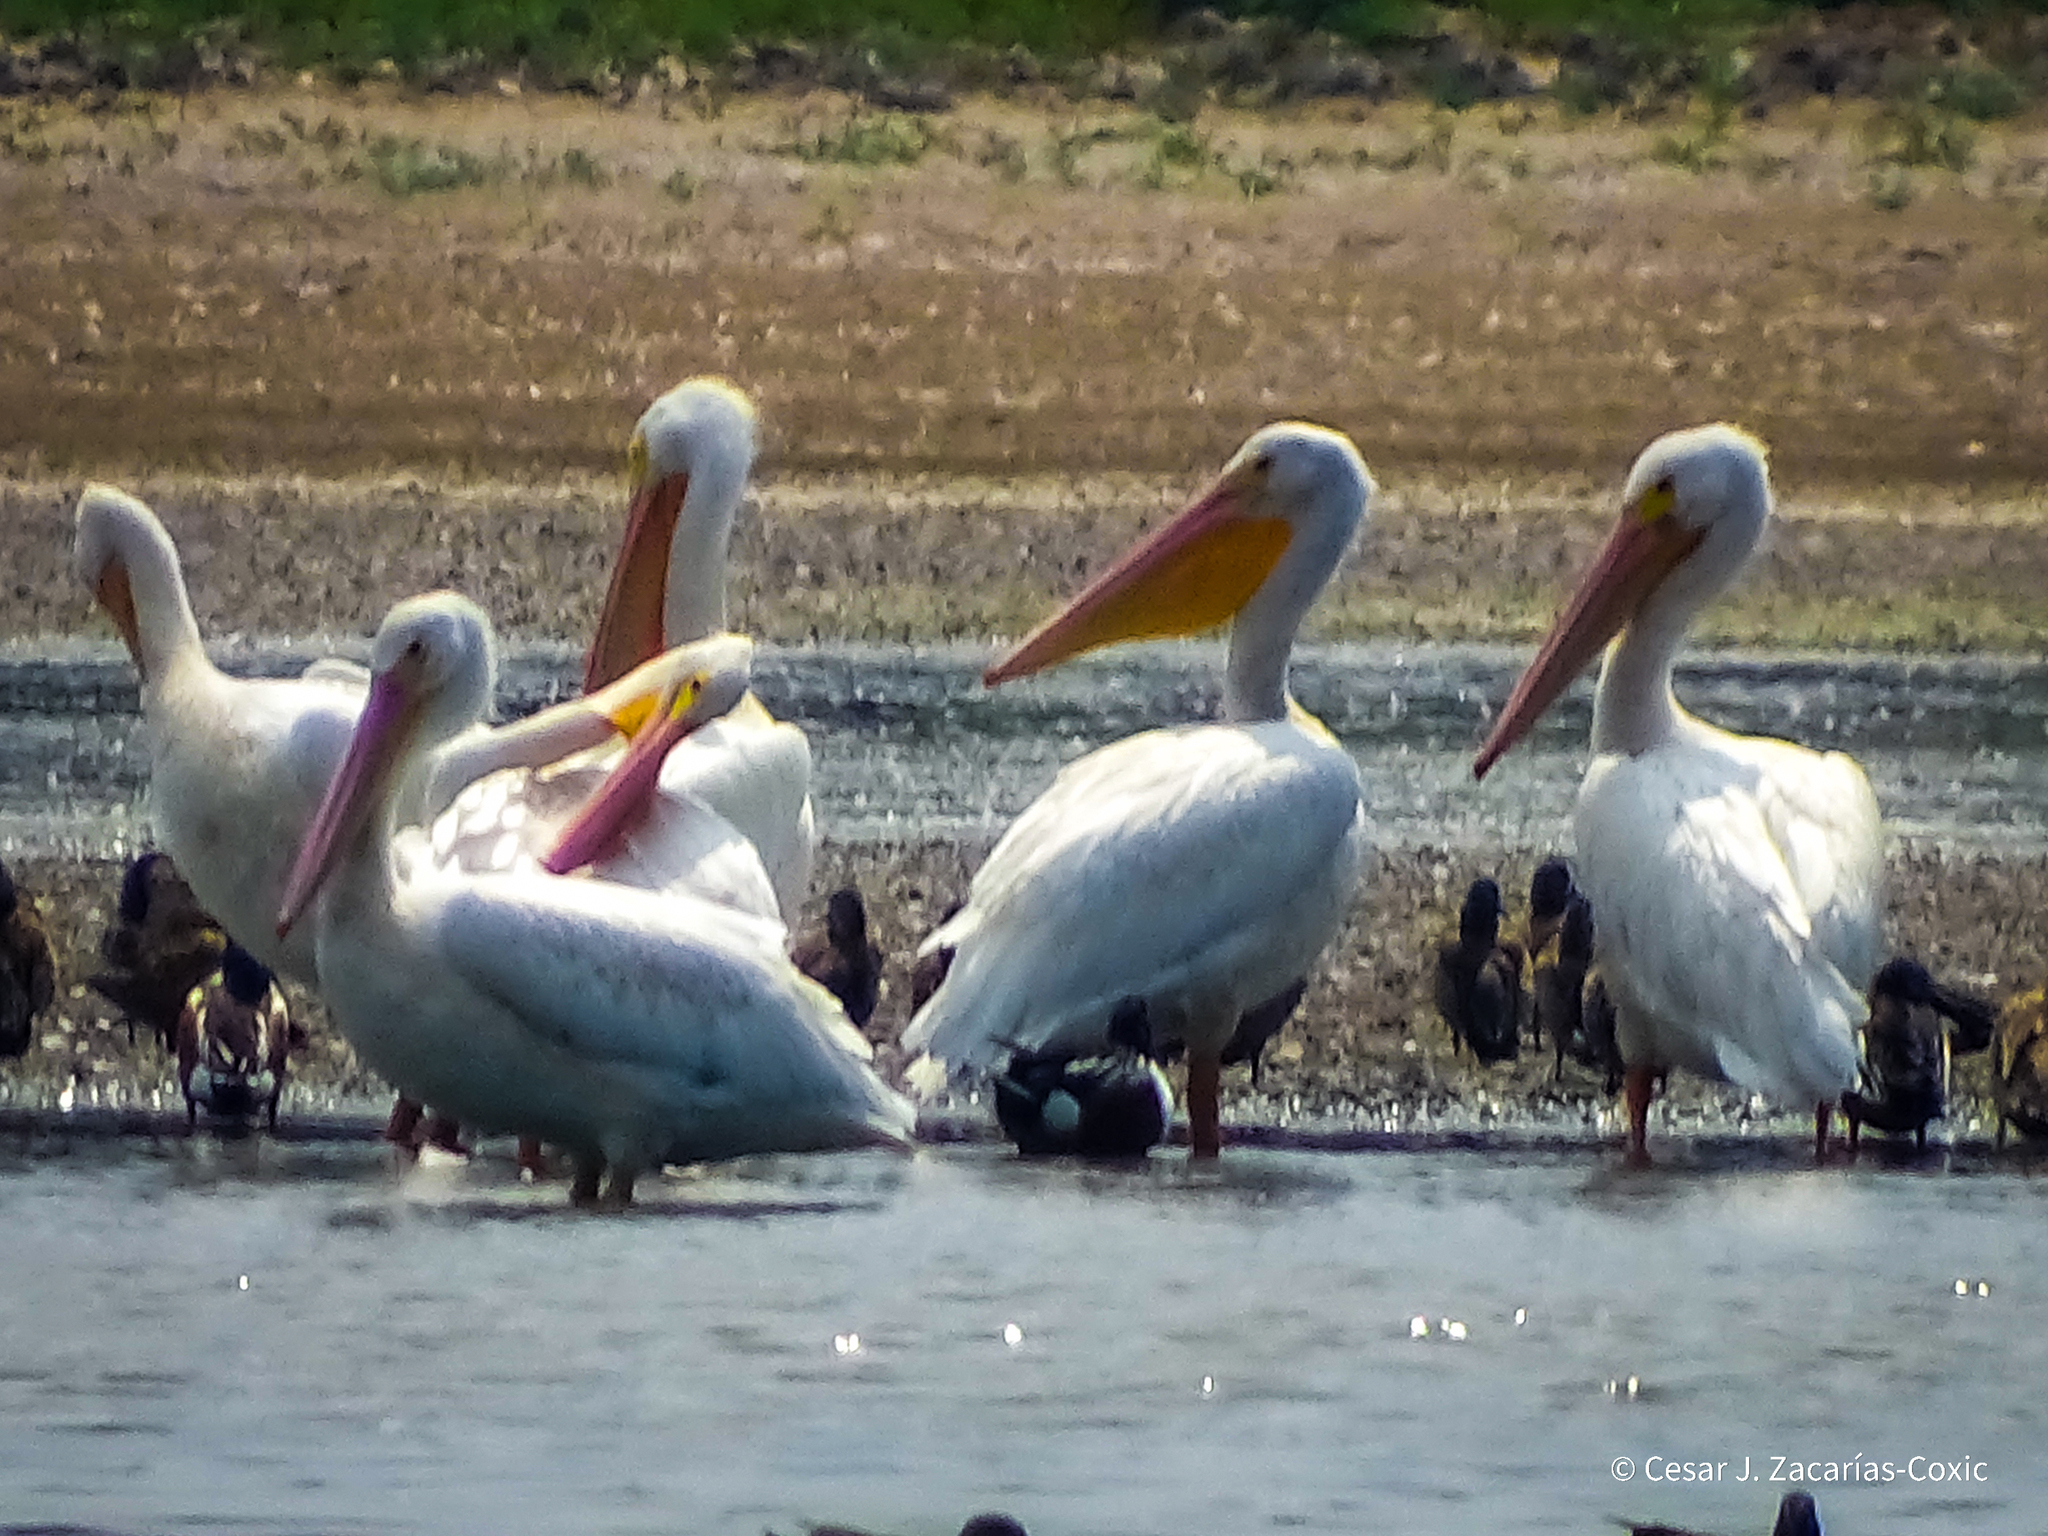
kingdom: Animalia
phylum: Chordata
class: Aves
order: Pelecaniformes
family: Pelecanidae
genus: Pelecanus
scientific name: Pelecanus erythrorhynchos
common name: American white pelican
